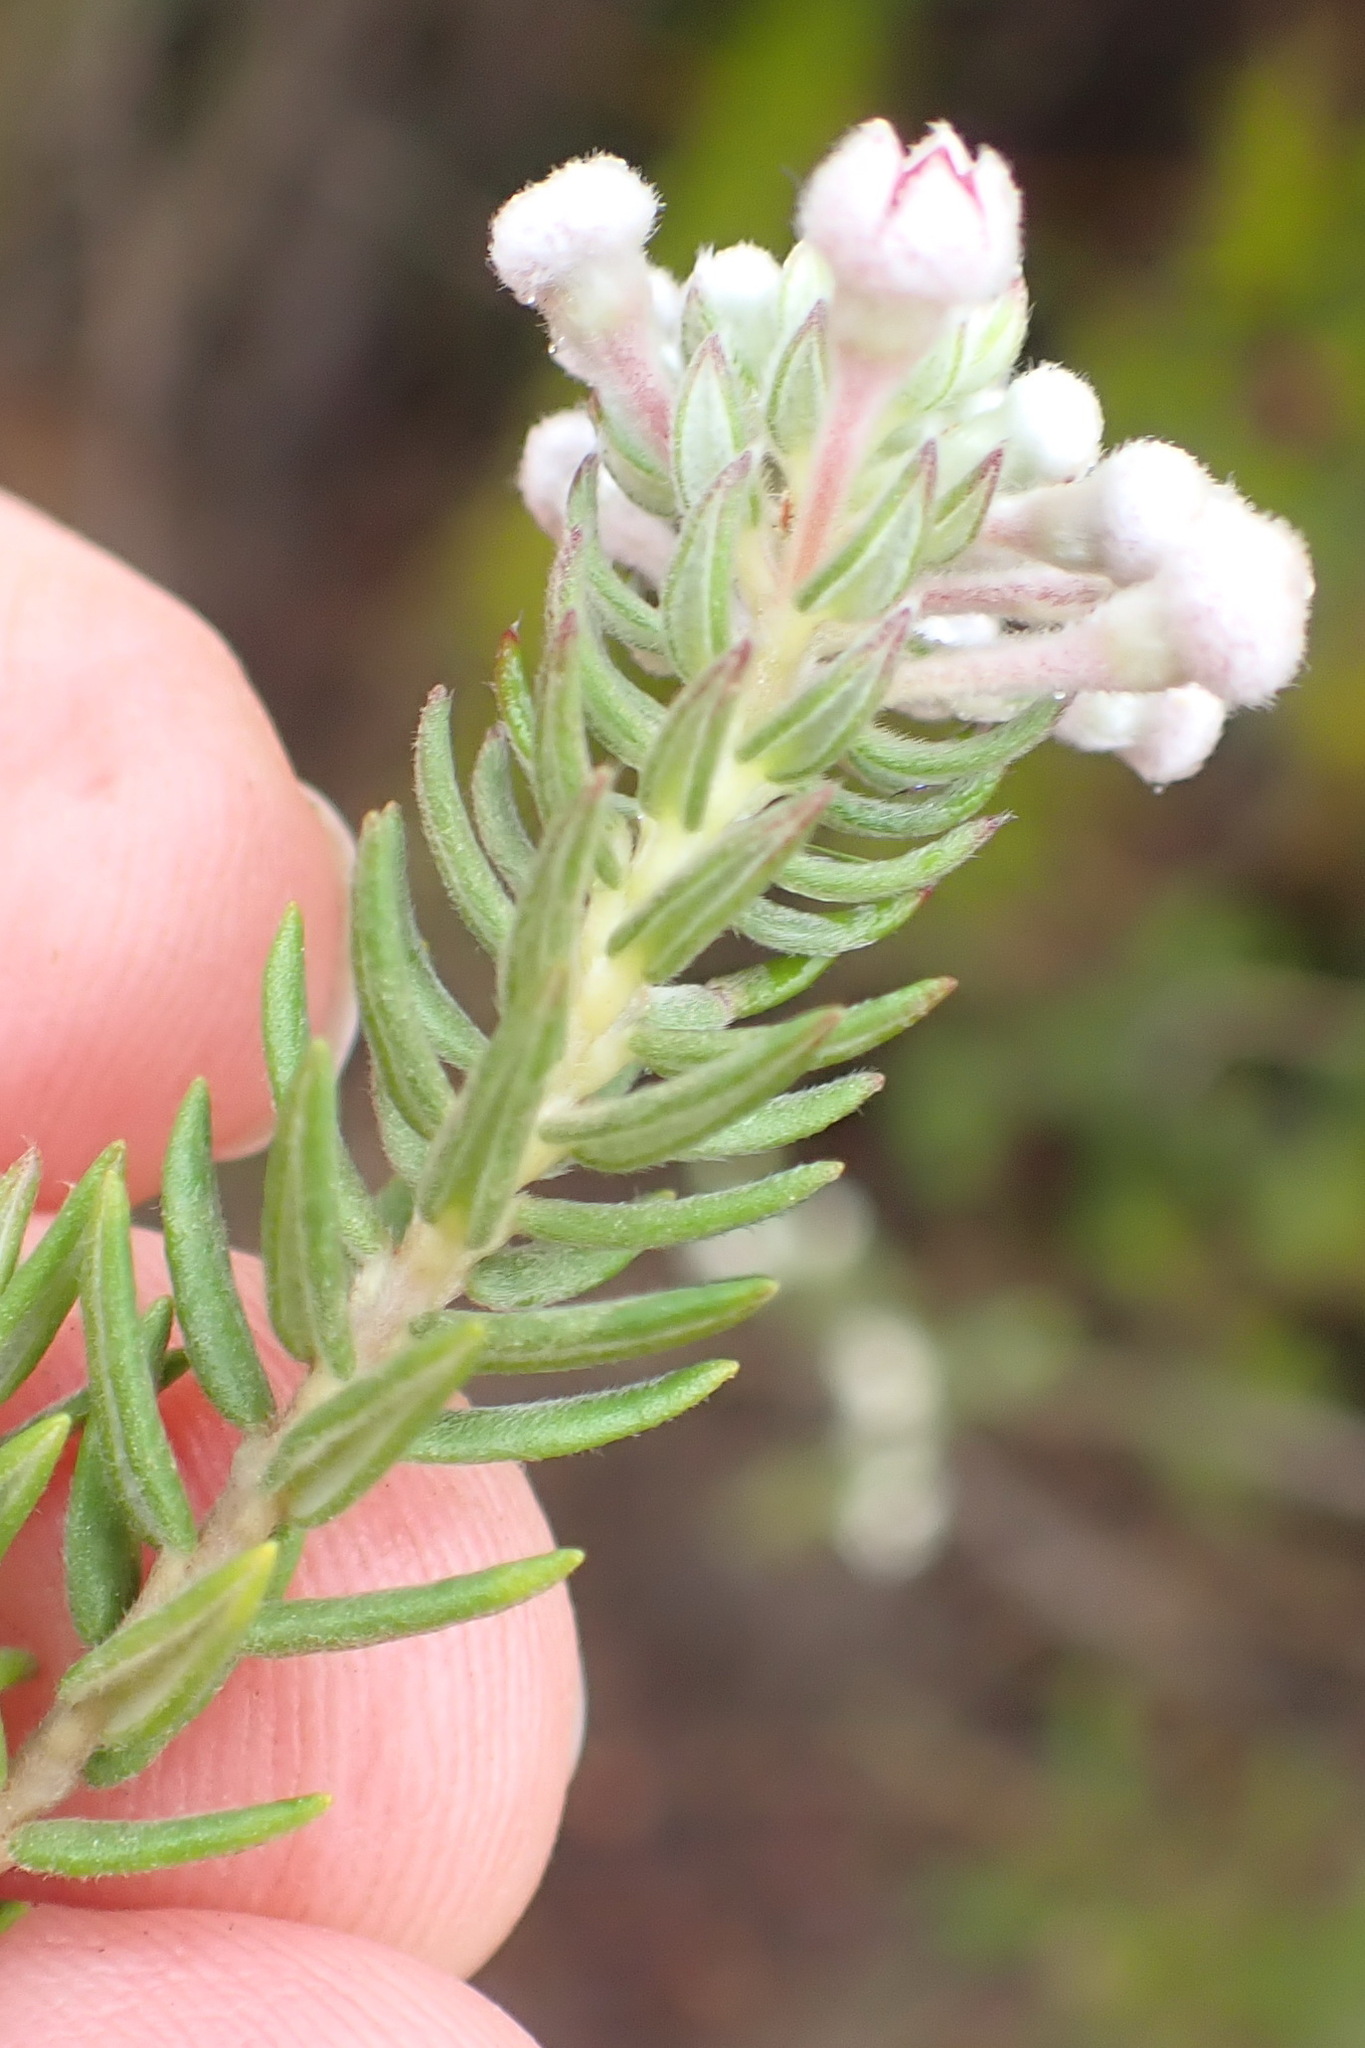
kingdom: Plantae
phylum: Tracheophyta
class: Magnoliopsida
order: Rosales
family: Rhamnaceae
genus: Phylica
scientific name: Phylica purpurea
